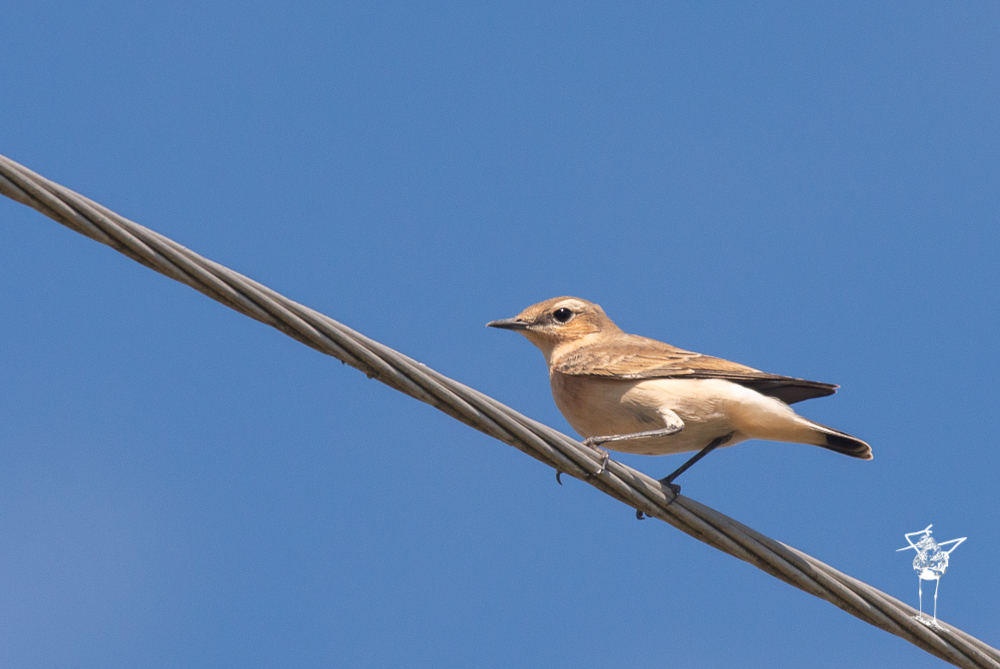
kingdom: Animalia
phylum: Chordata
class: Aves
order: Passeriformes
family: Muscicapidae
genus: Oenanthe
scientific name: Oenanthe oenanthe
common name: Northern wheatear
